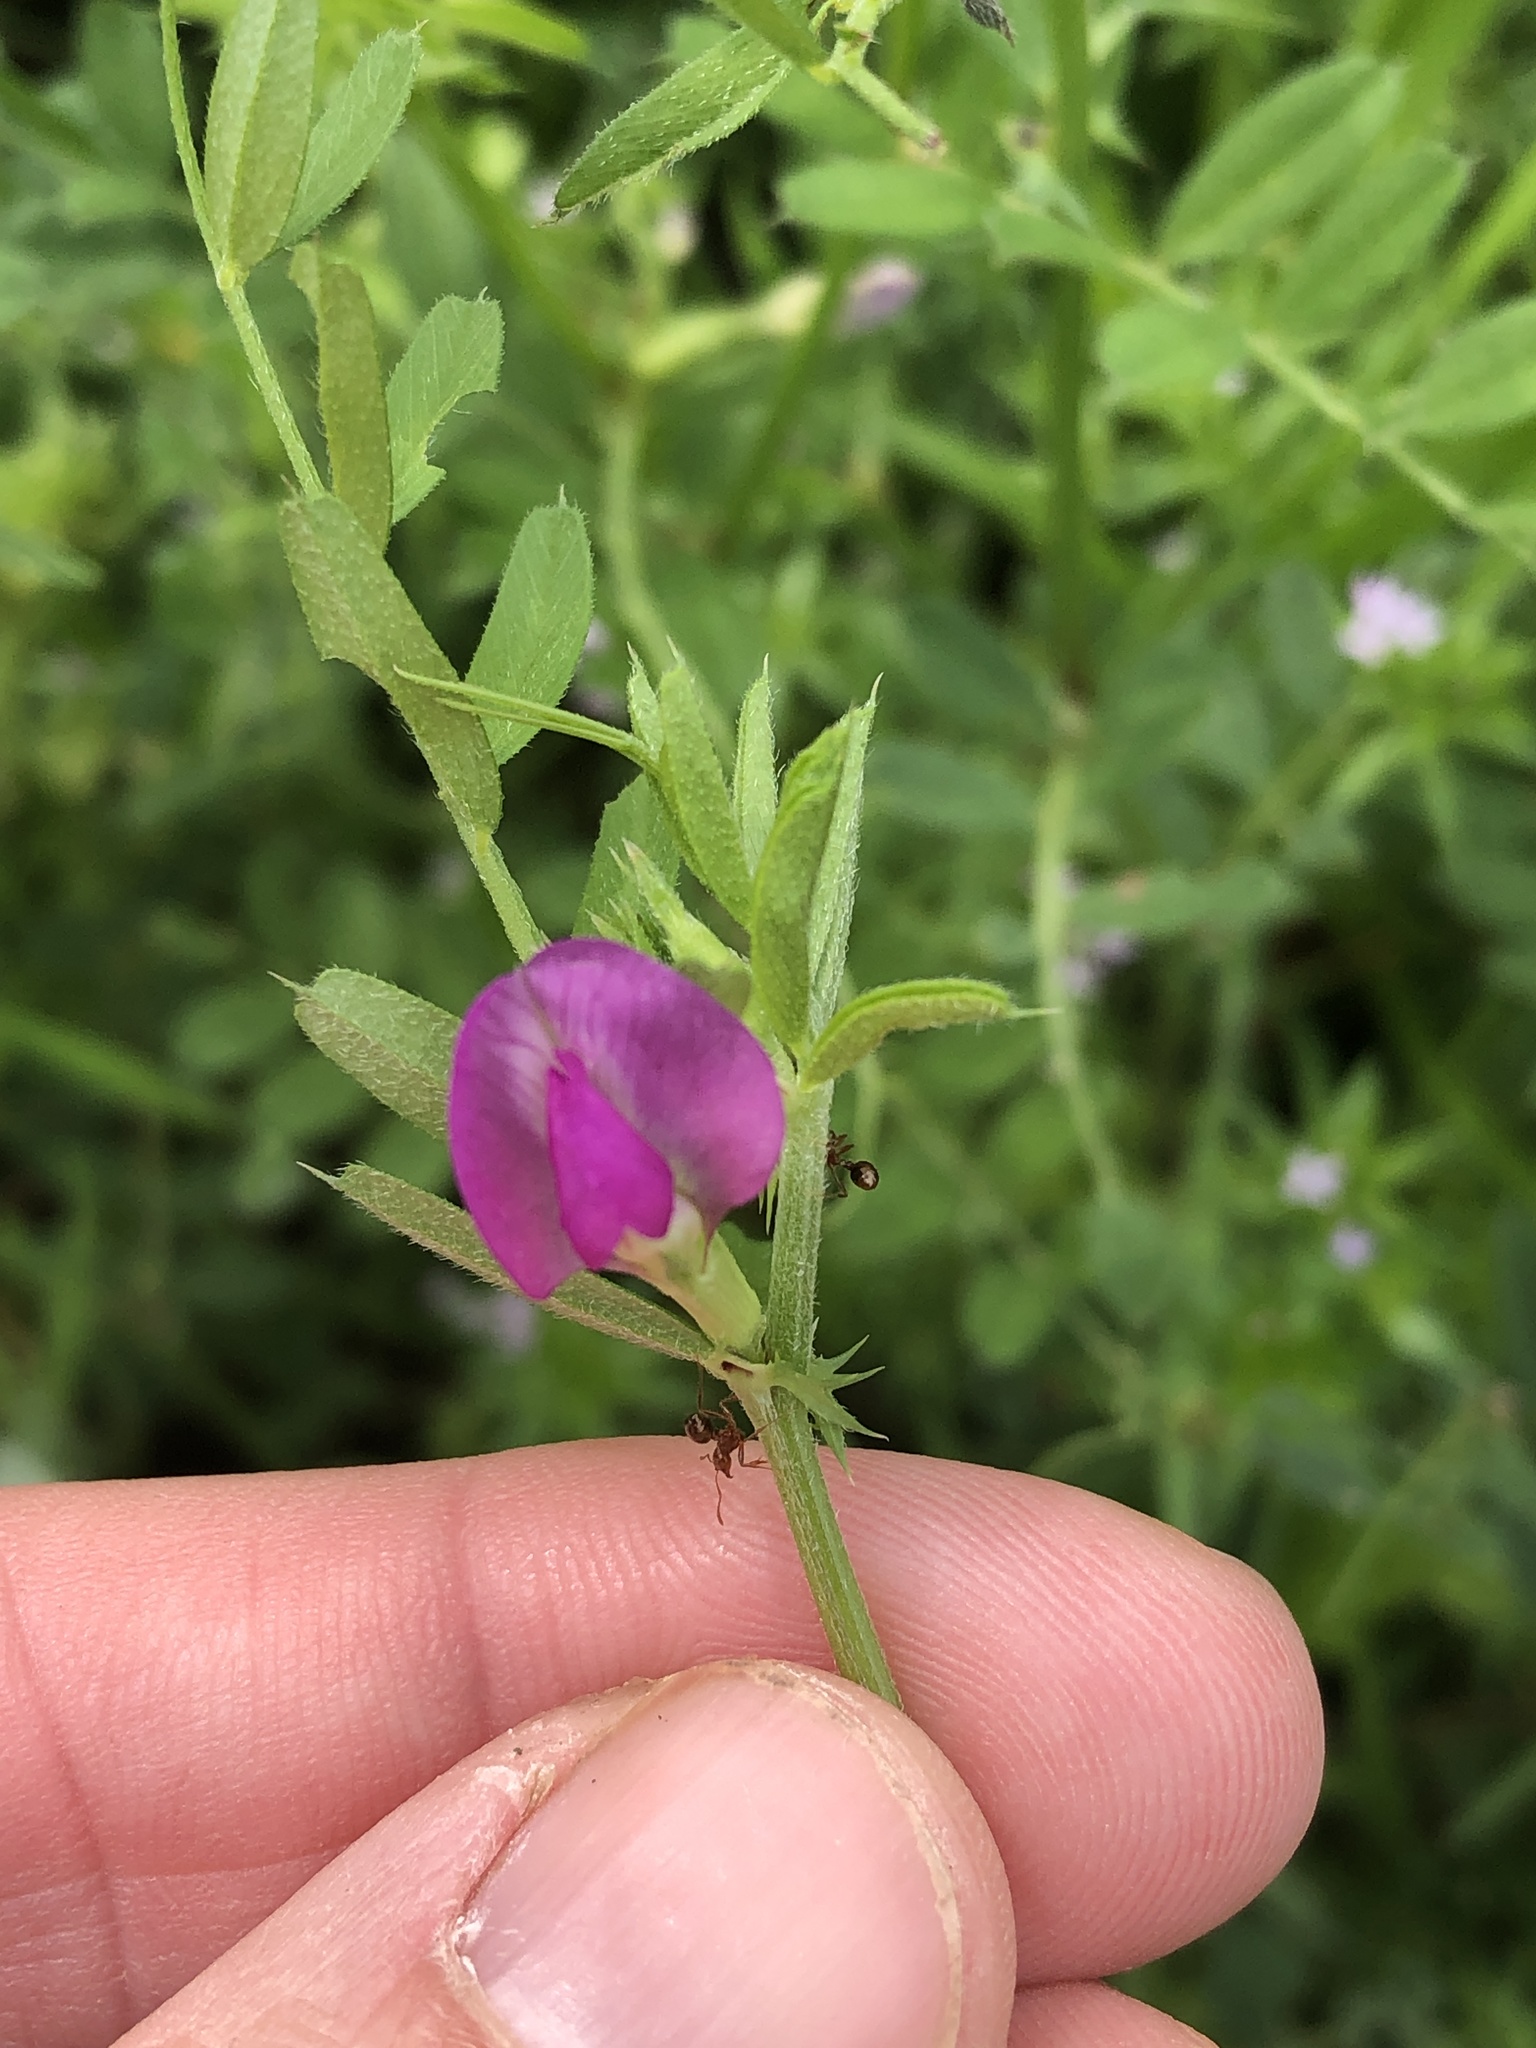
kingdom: Plantae
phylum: Tracheophyta
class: Magnoliopsida
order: Fabales
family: Fabaceae
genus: Vicia
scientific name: Vicia sativa
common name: Garden vetch
